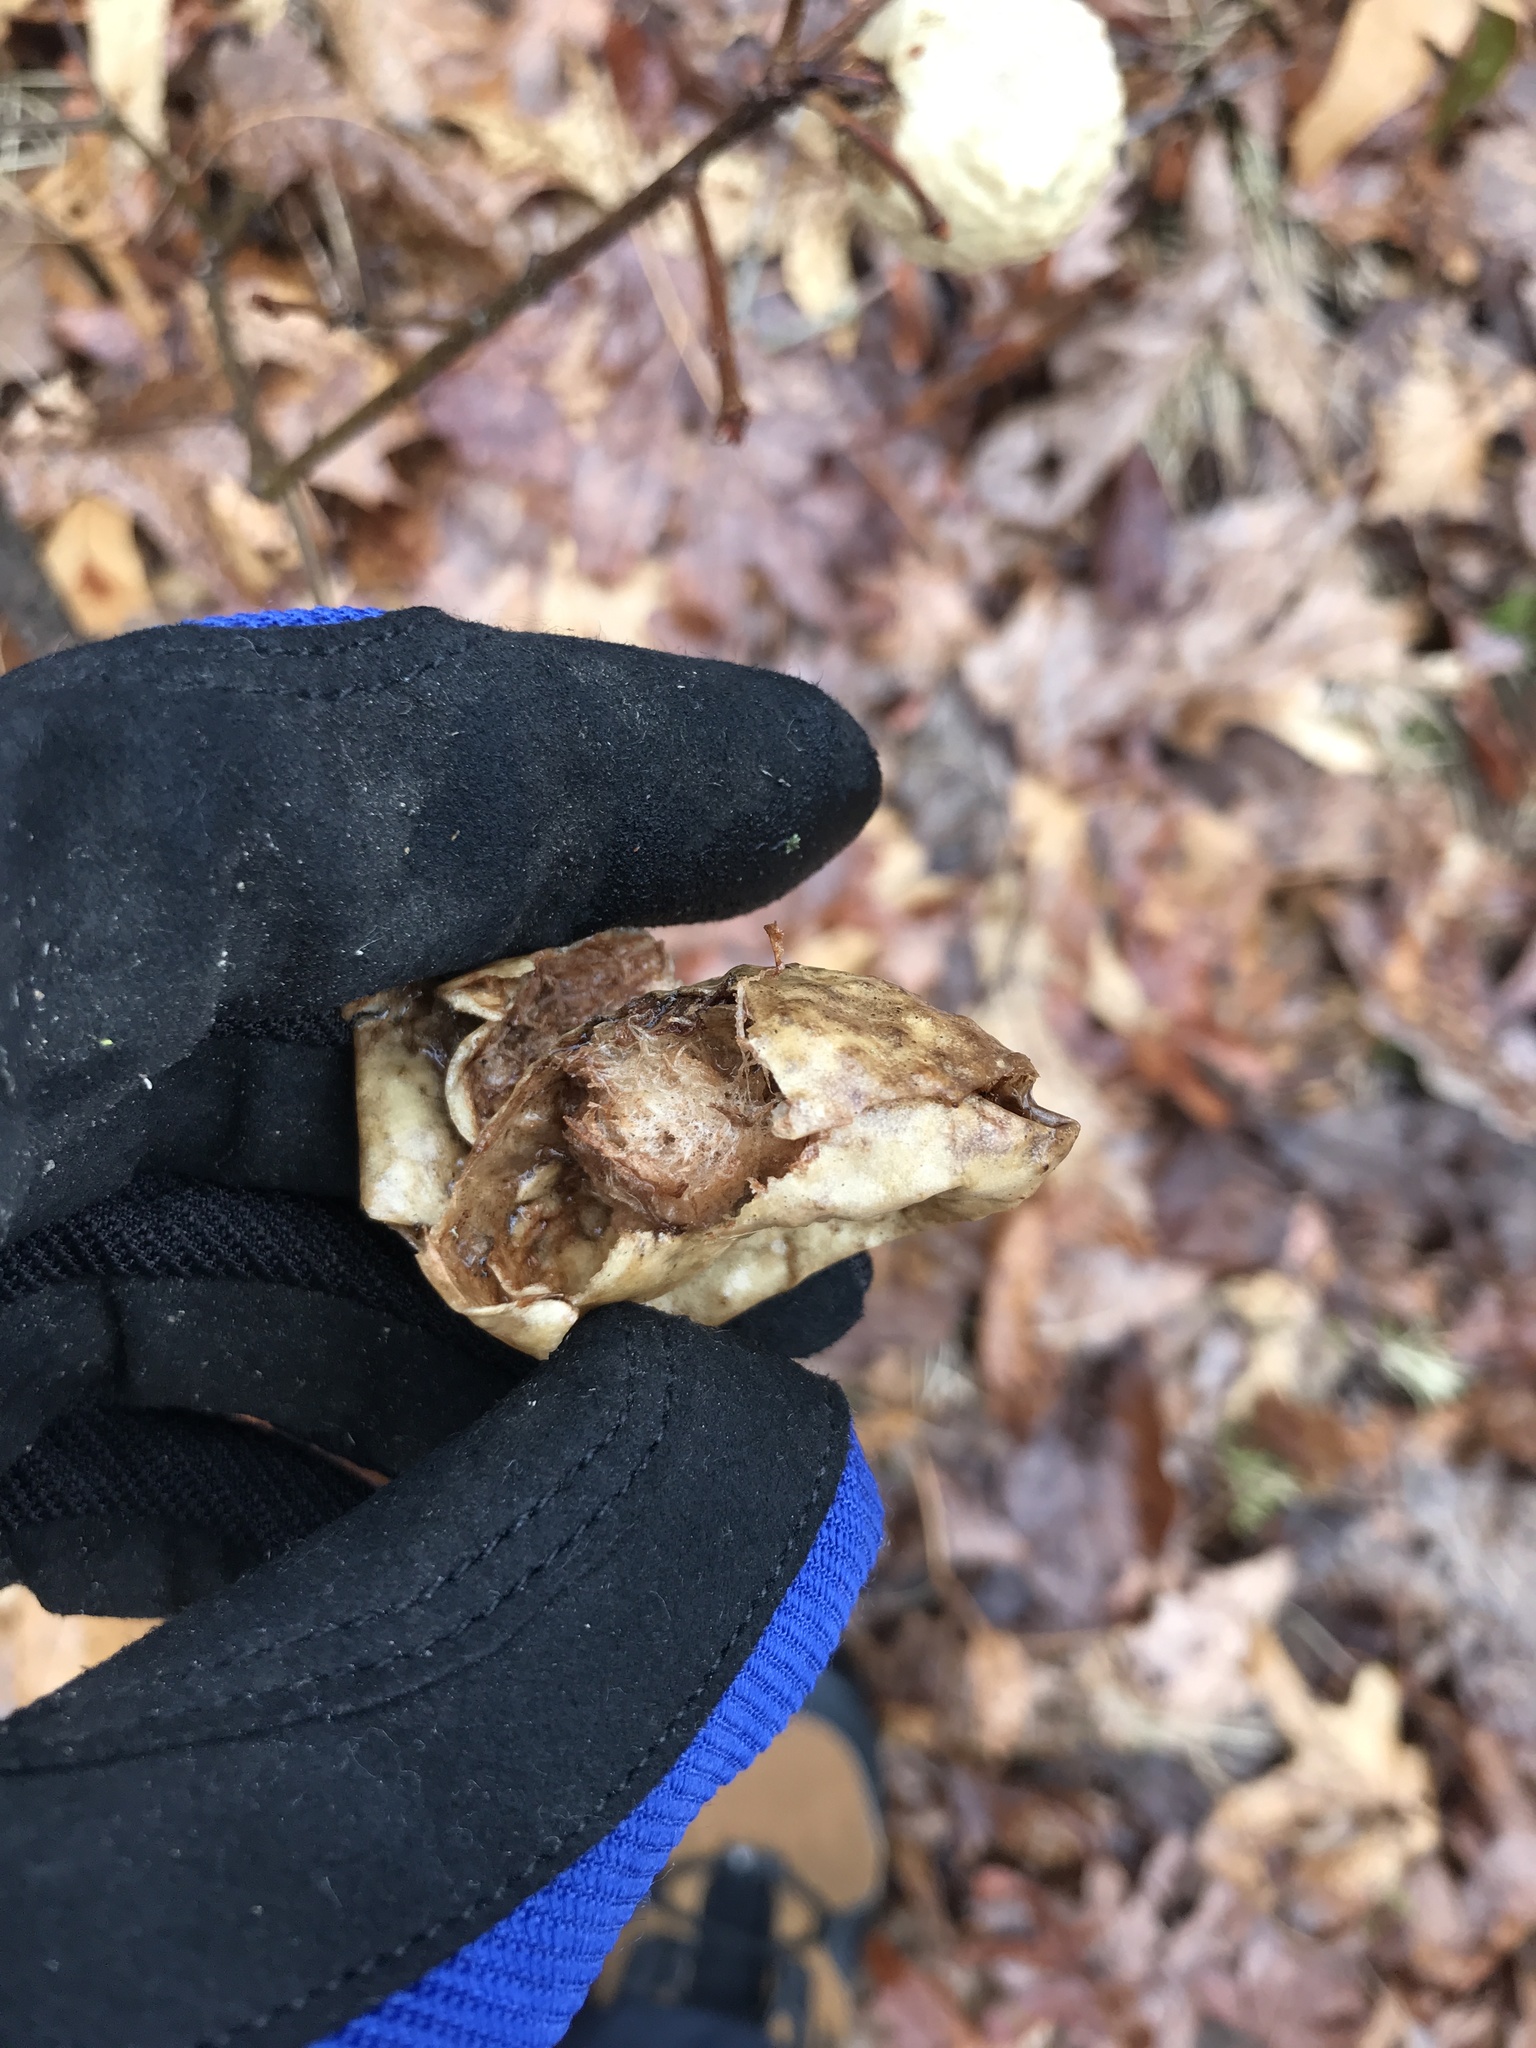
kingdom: Animalia
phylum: Arthropoda
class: Insecta
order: Hymenoptera
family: Cynipidae
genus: Amphibolips
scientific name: Amphibolips
